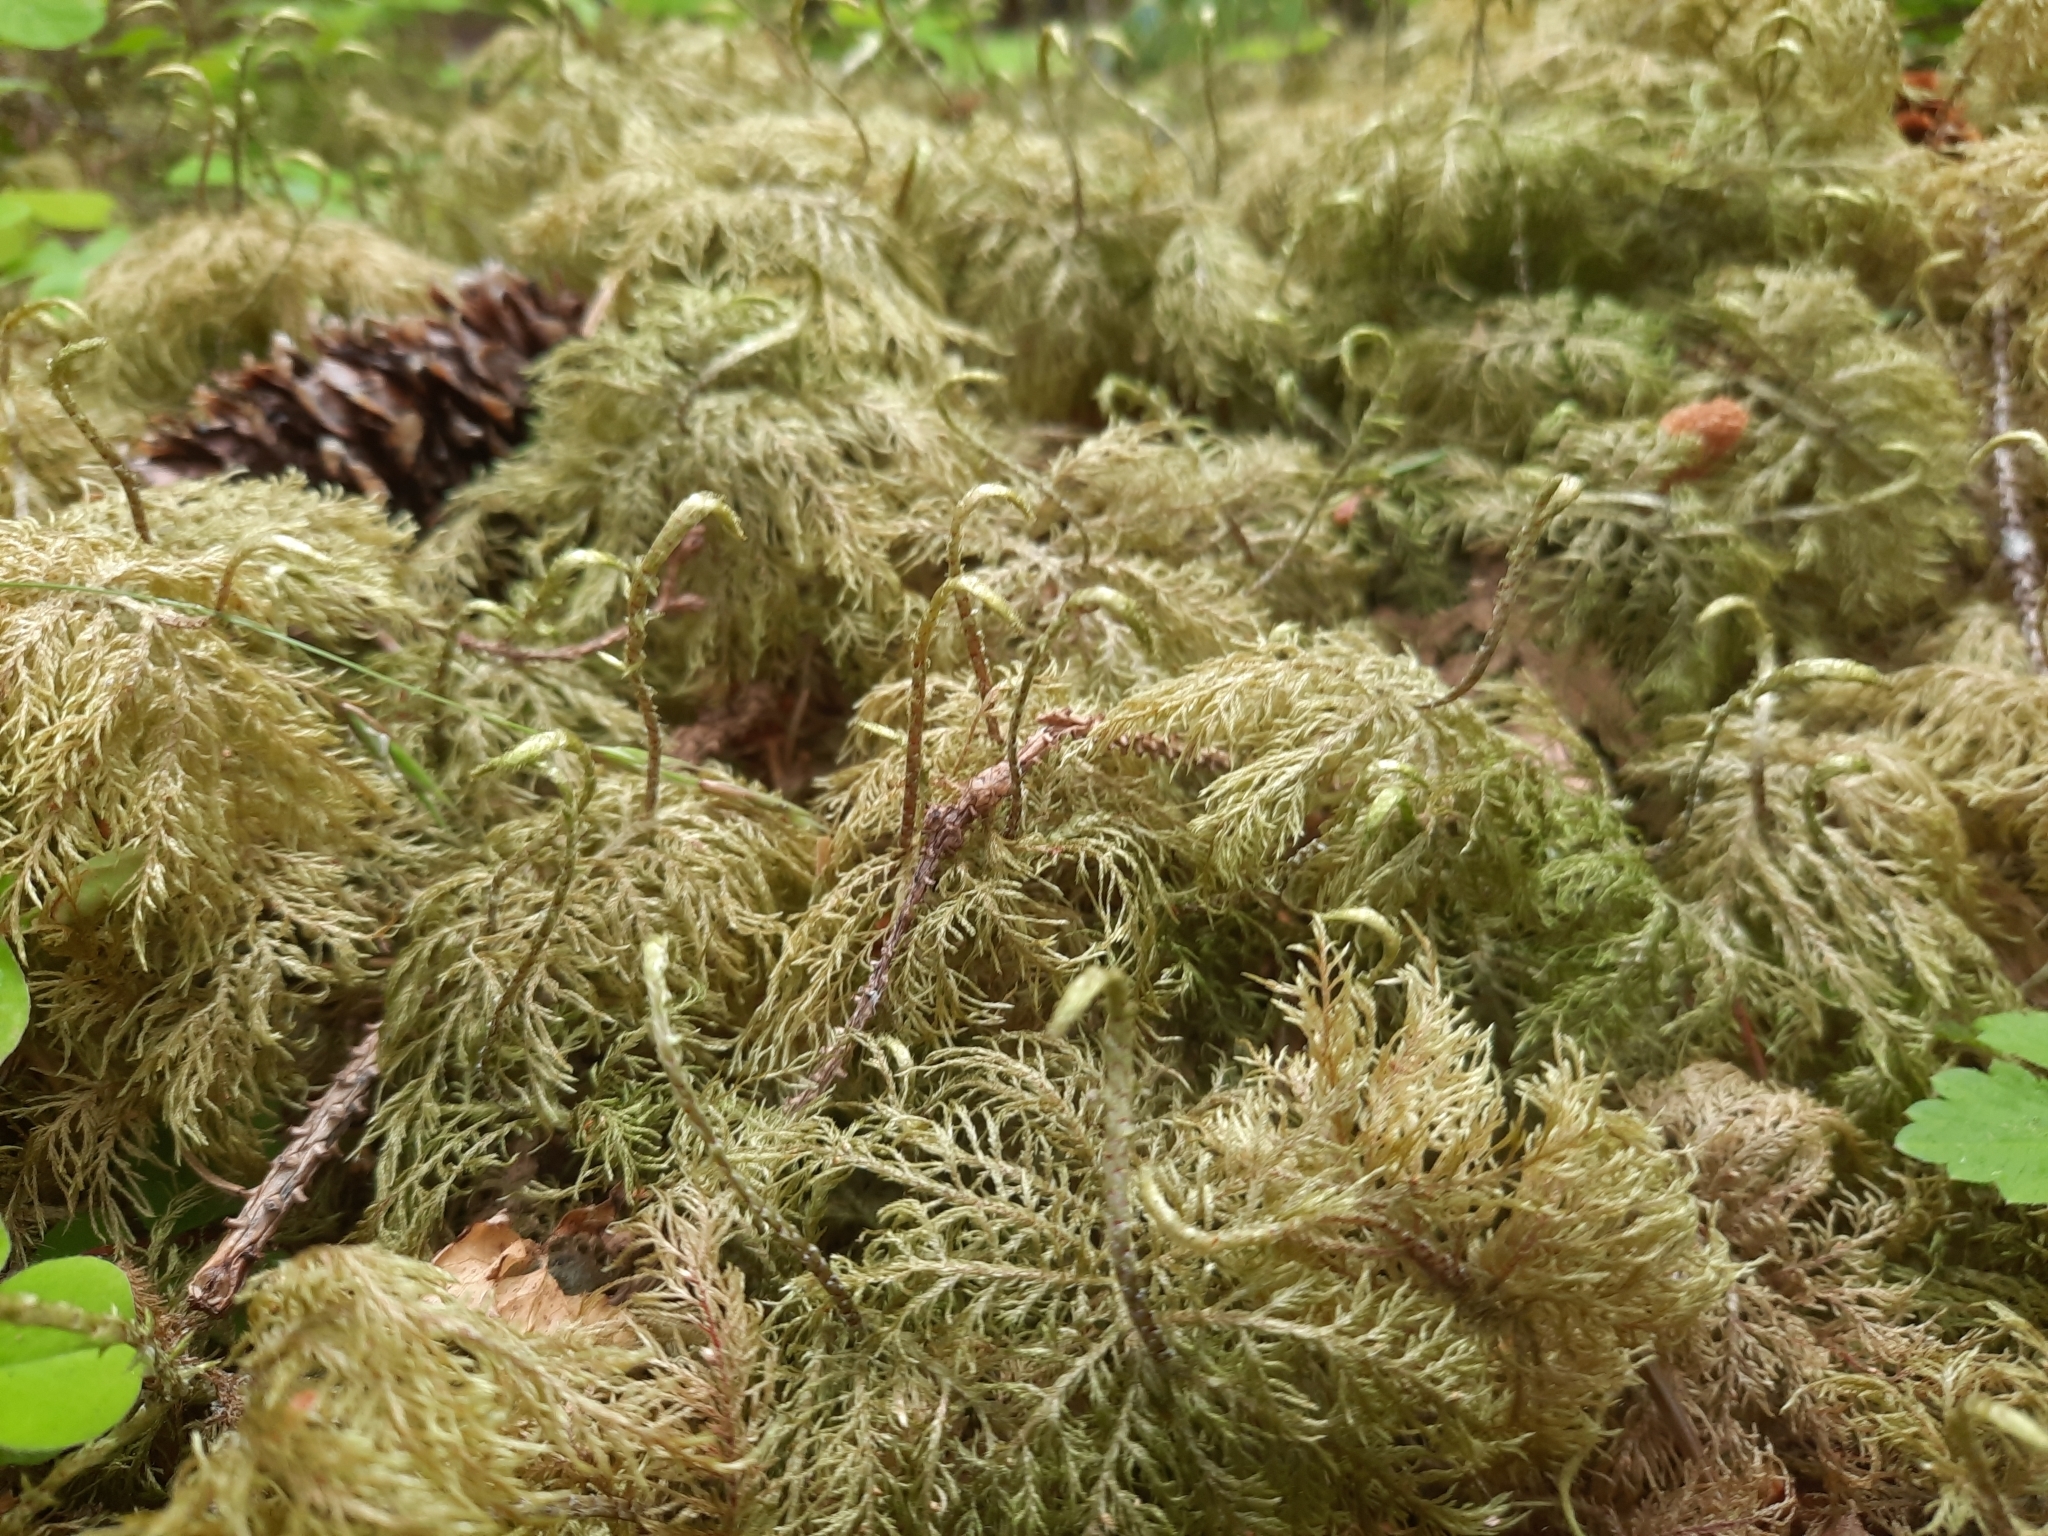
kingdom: Plantae
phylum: Bryophyta
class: Bryopsida
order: Hypnales
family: Hylocomiaceae
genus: Hylocomium
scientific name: Hylocomium splendens
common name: Stairstep moss
